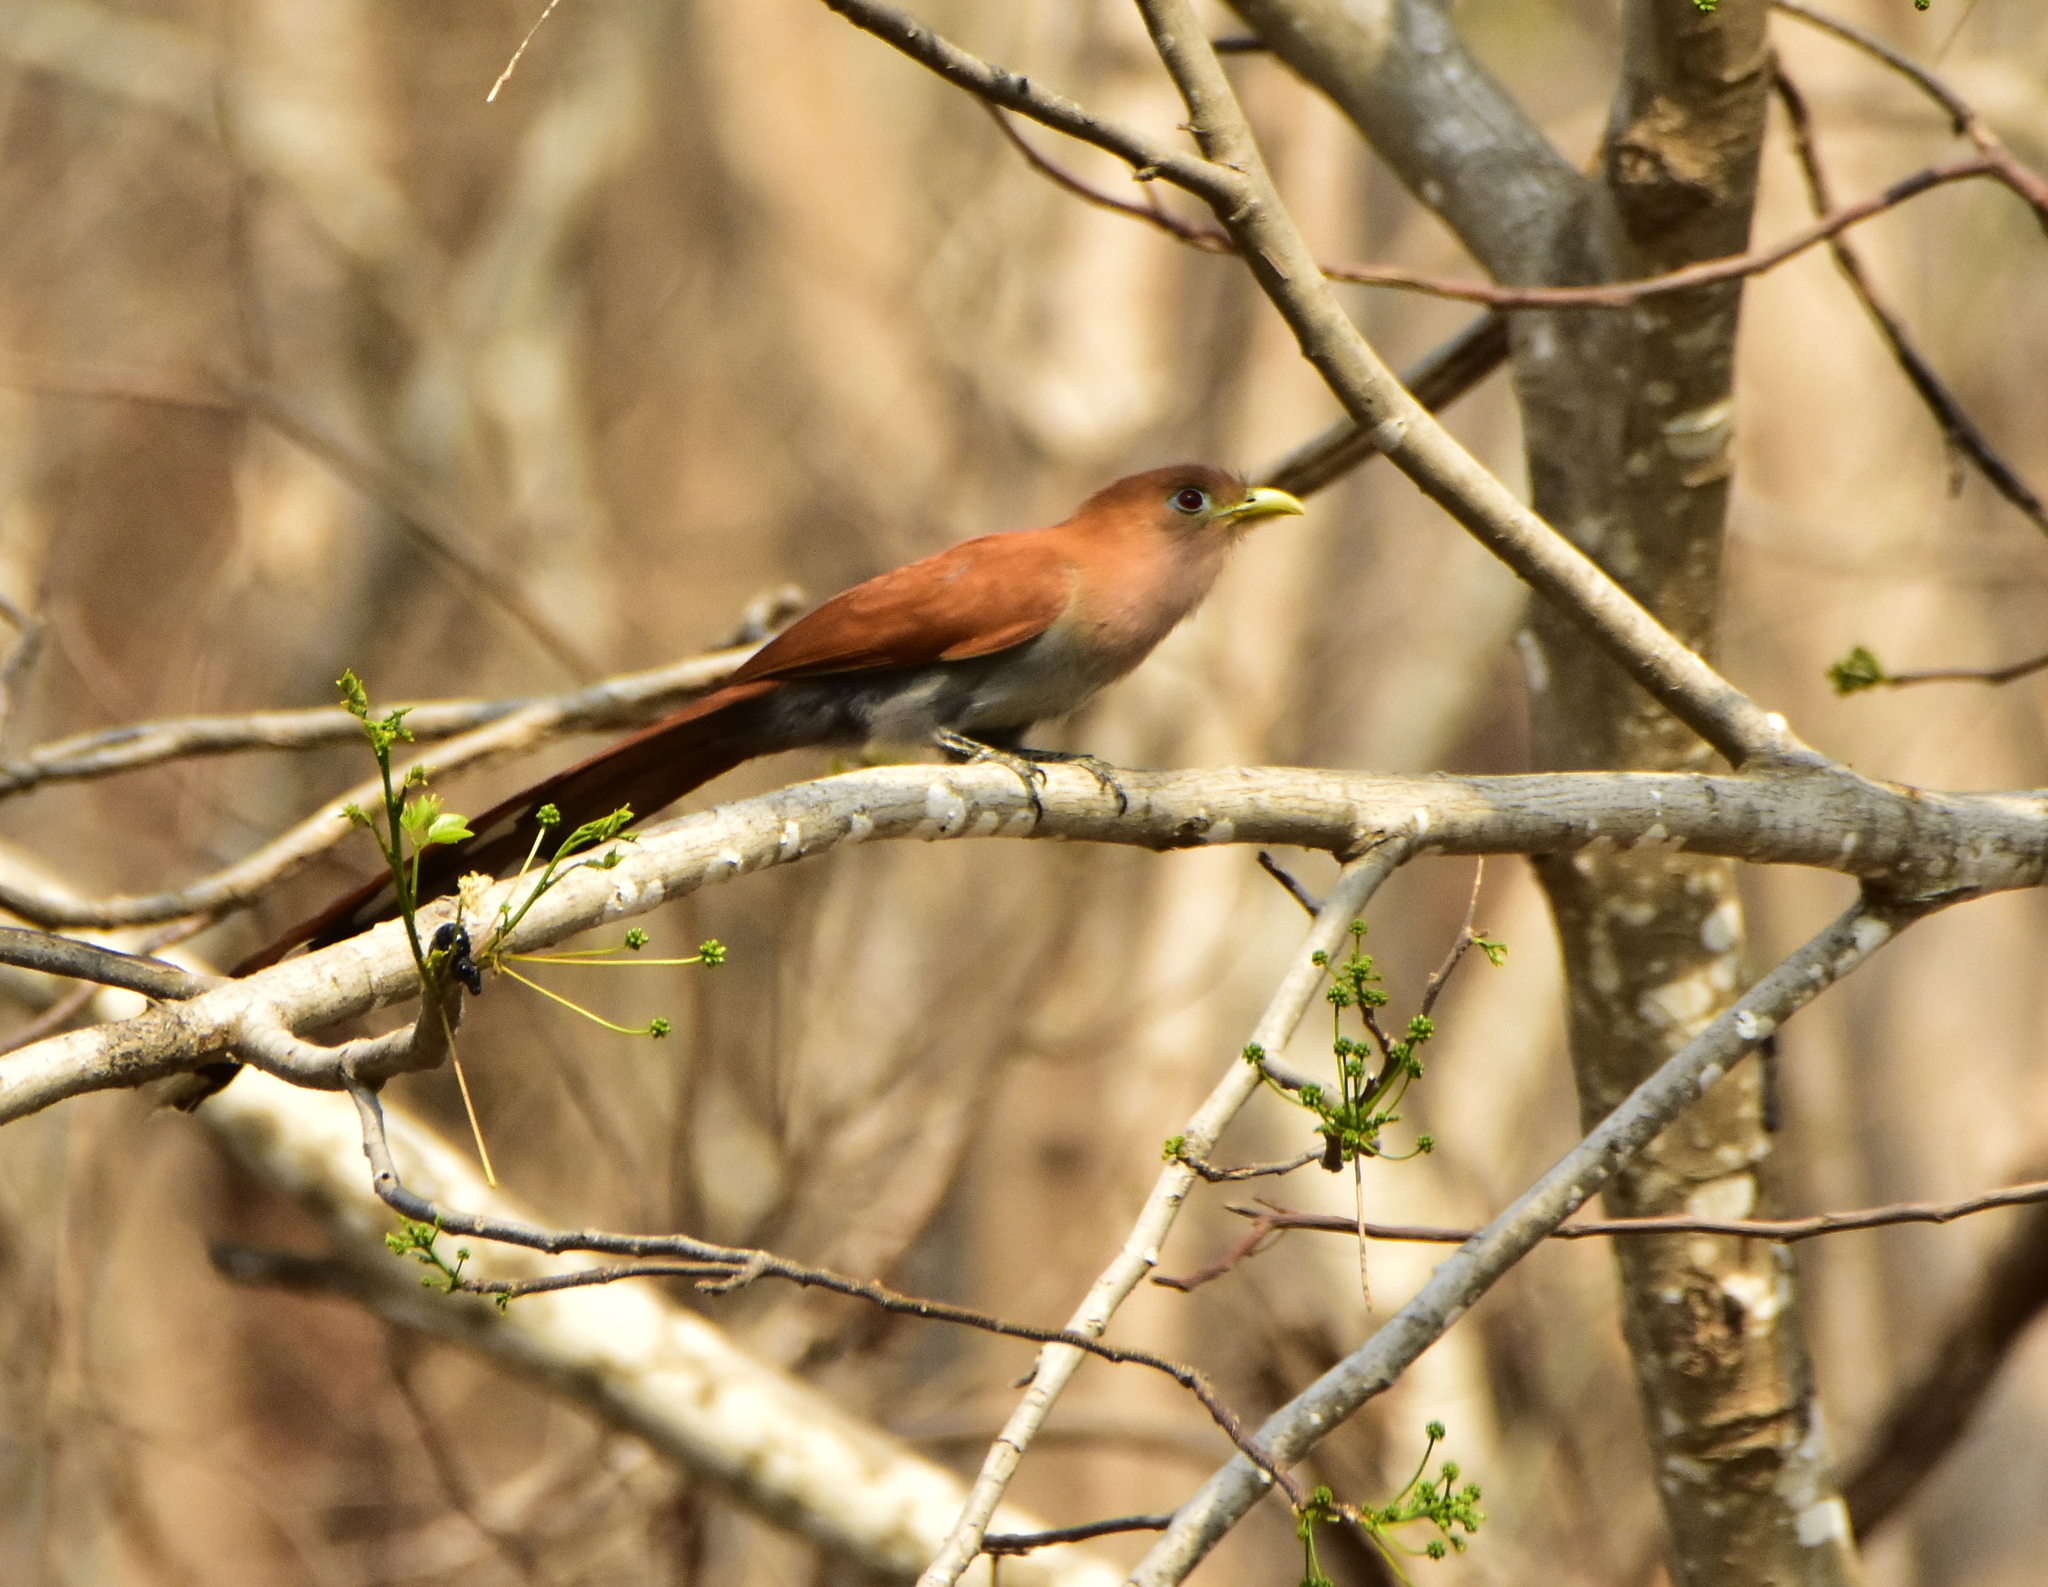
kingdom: Animalia
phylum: Chordata
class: Aves
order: Cuculiformes
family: Cuculidae
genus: Piaya
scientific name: Piaya cayana
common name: Squirrel cuckoo
